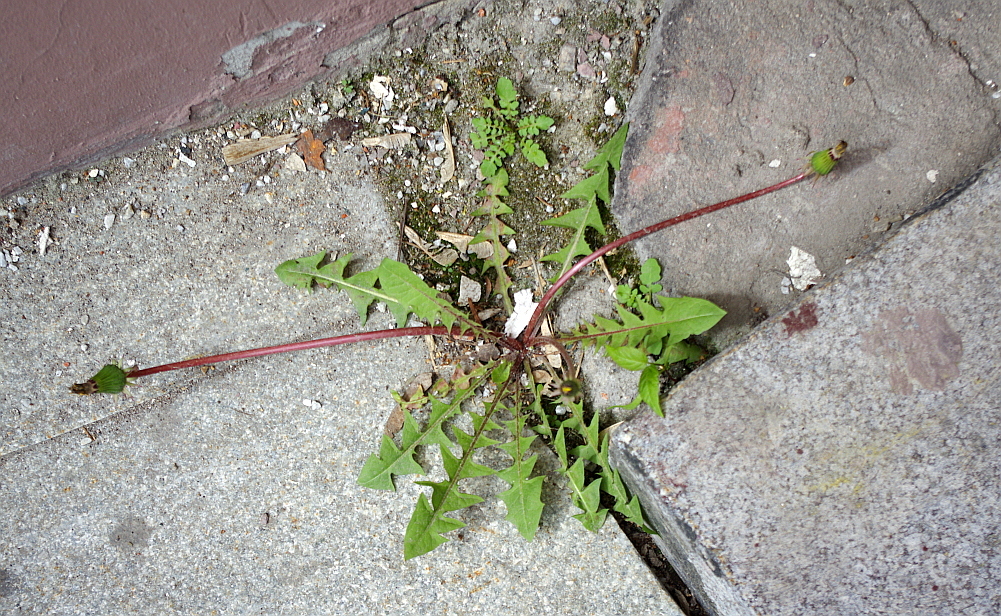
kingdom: Plantae
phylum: Tracheophyta
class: Magnoliopsida
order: Asterales
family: Asteraceae
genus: Taraxacum
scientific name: Taraxacum officinale
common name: Common dandelion
